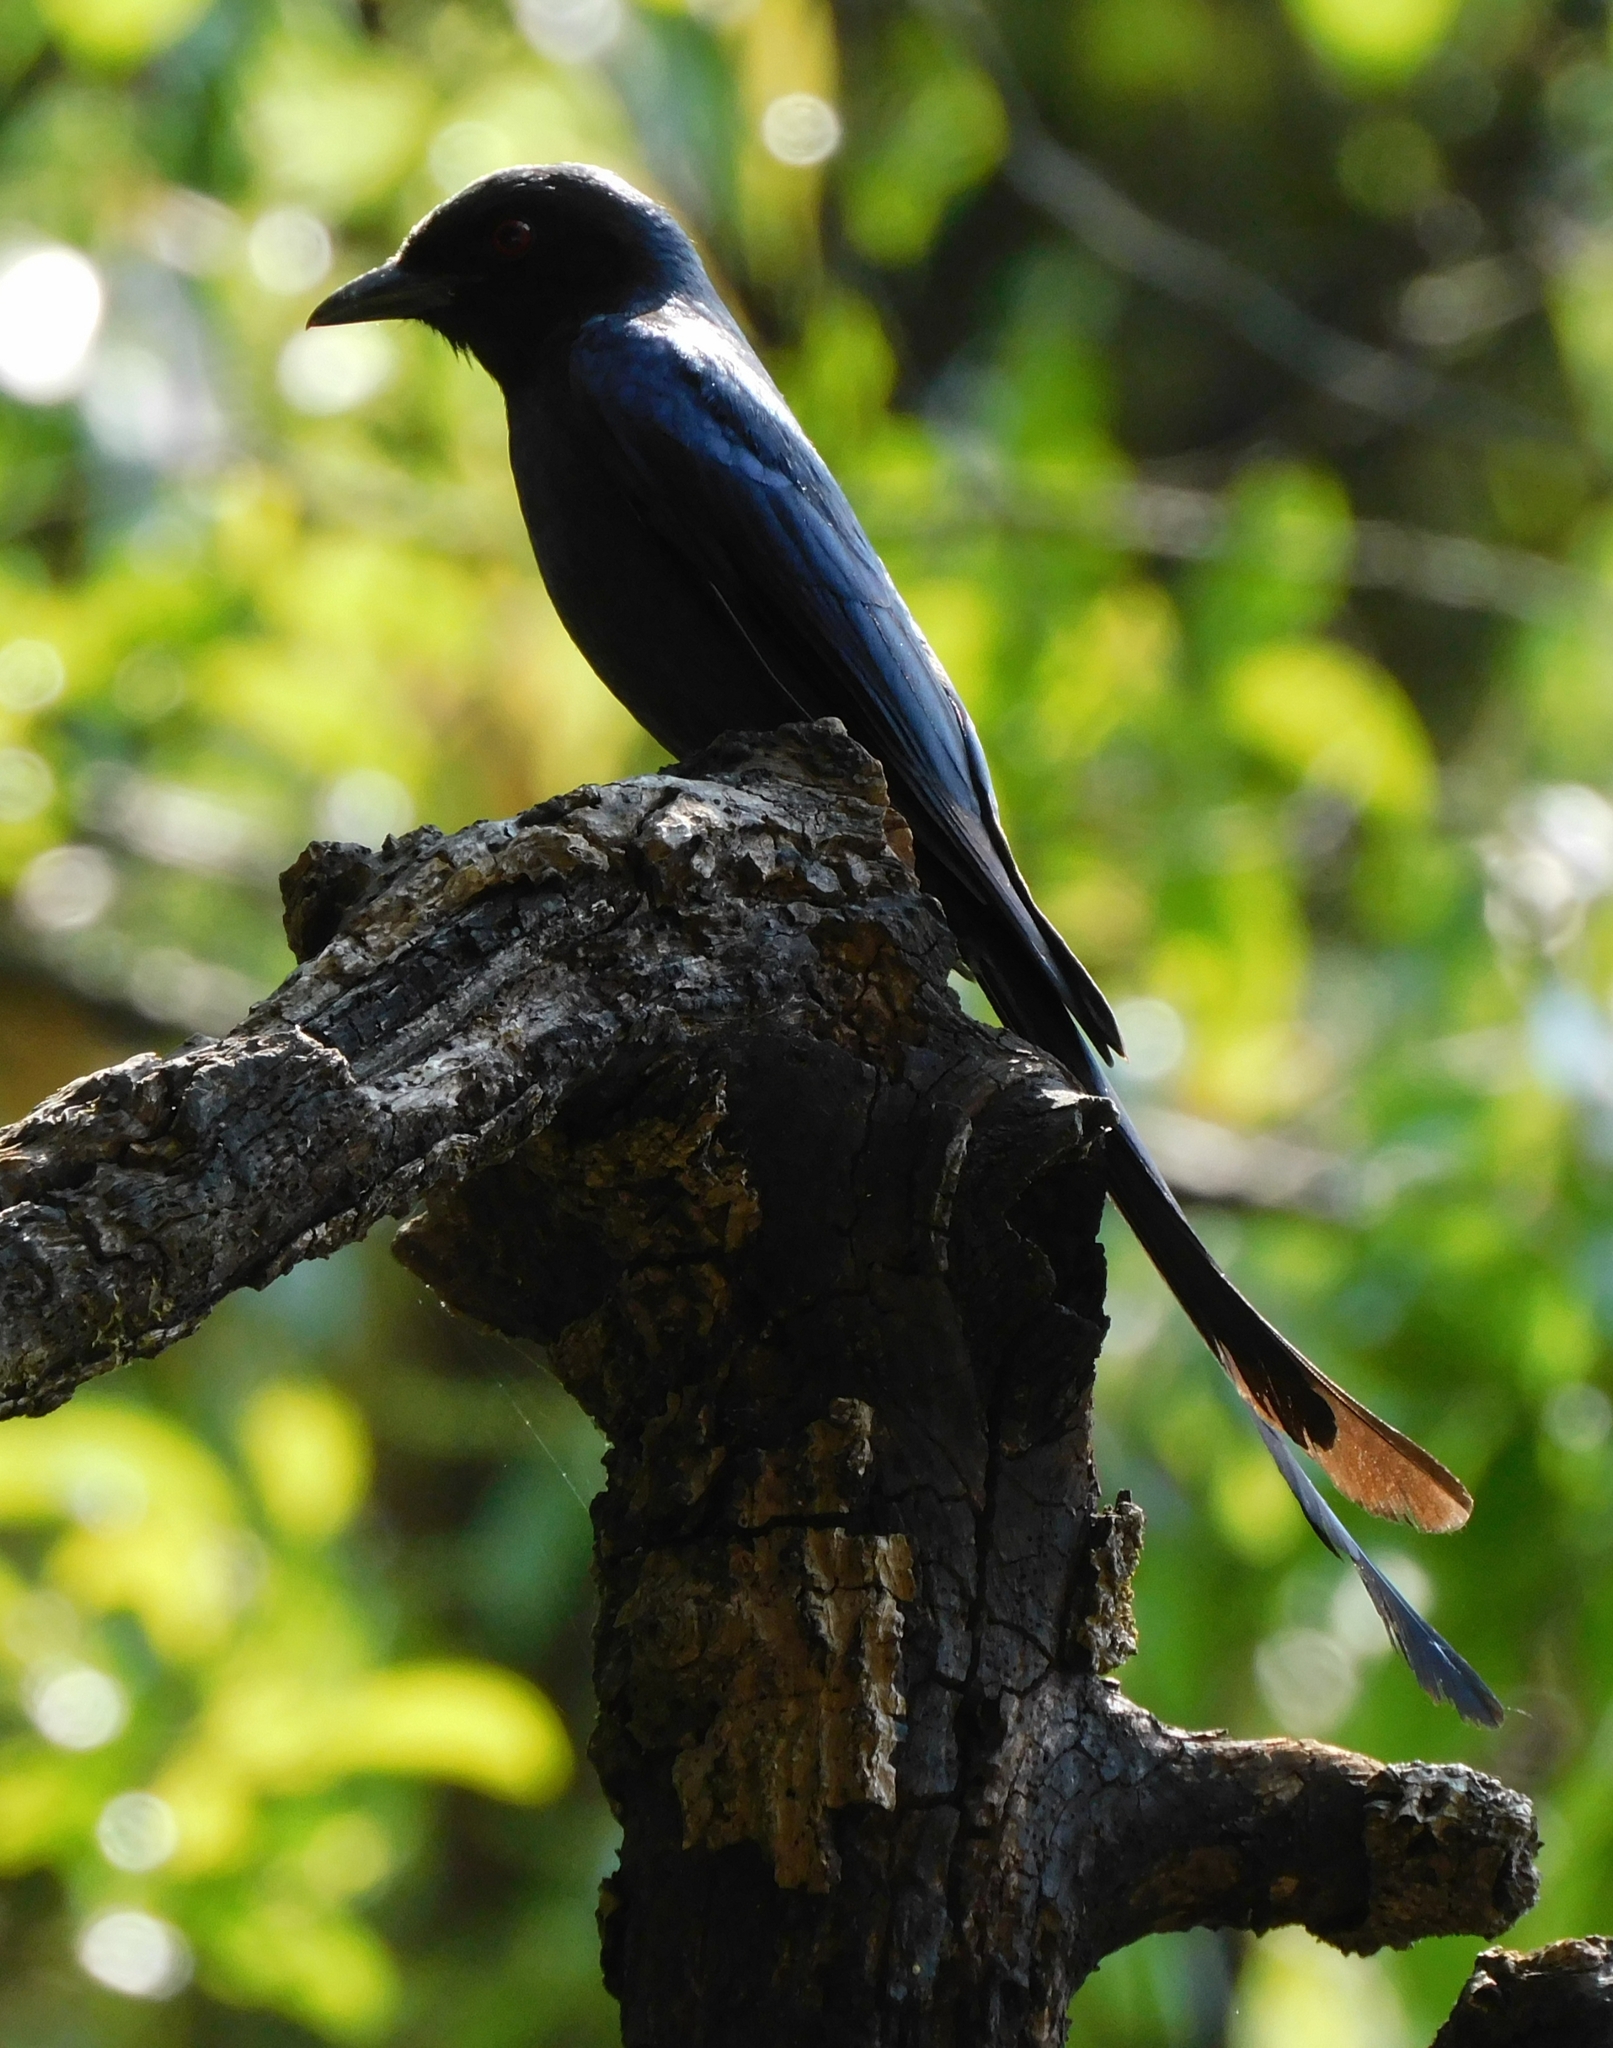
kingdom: Animalia
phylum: Chordata
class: Aves
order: Passeriformes
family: Dicruridae
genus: Dicrurus
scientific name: Dicrurus leucophaeus
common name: Ashy drongo
